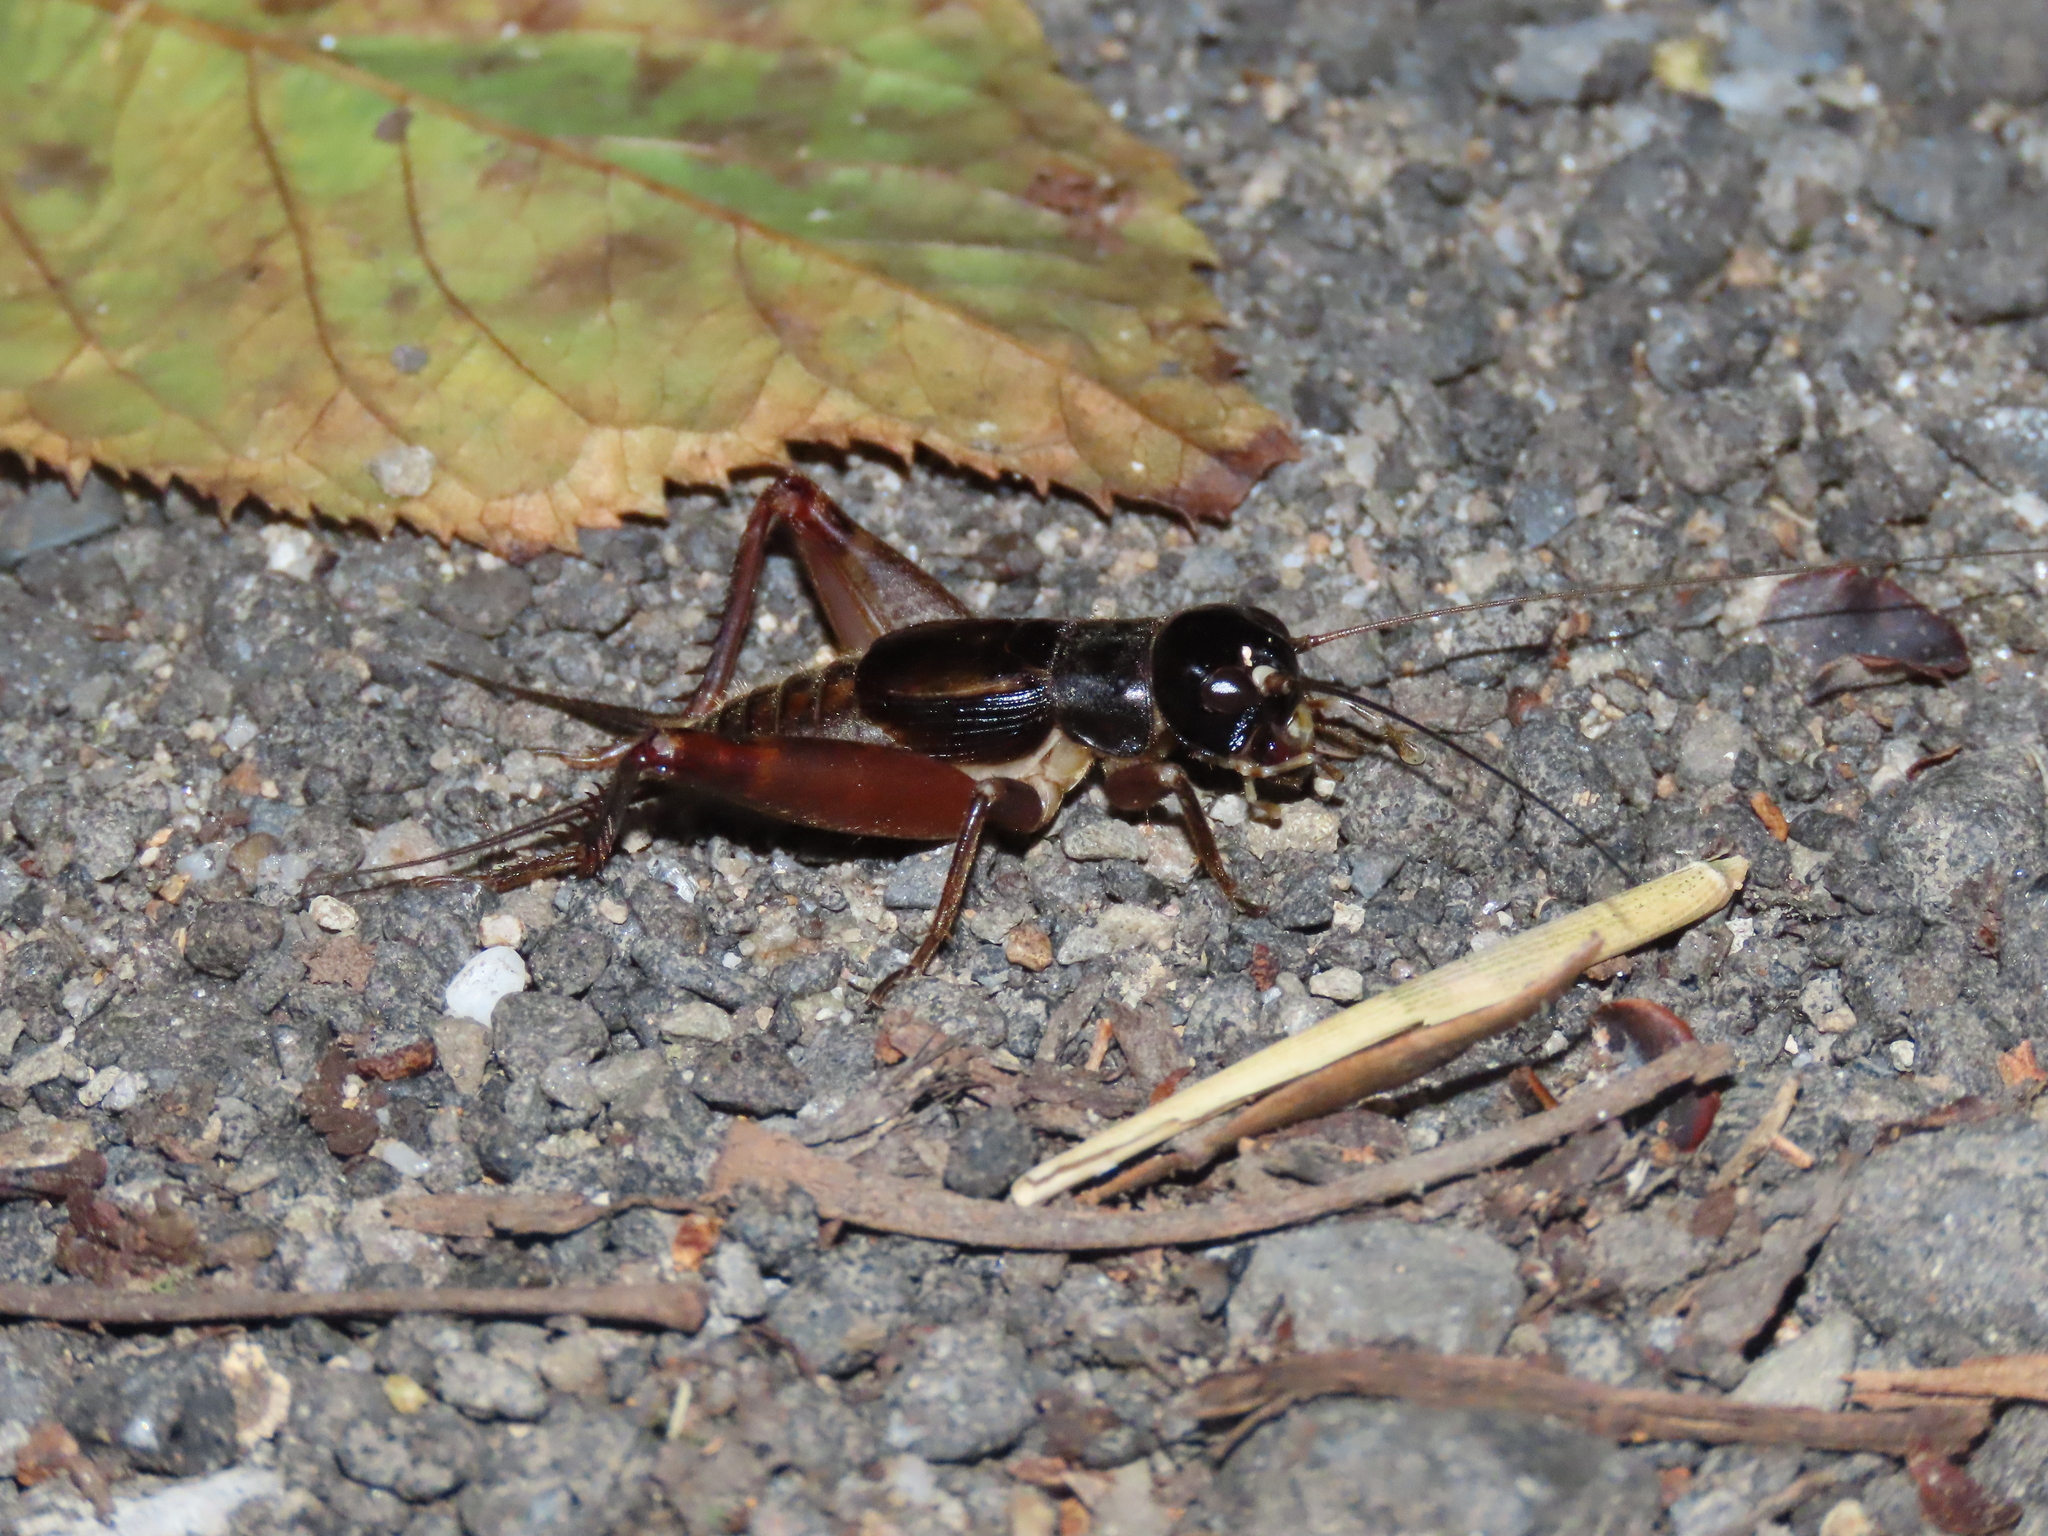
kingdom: Animalia
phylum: Arthropoda
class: Insecta
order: Orthoptera
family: Gryllidae
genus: Duolandrevus
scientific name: Duolandrevus coulonianus
